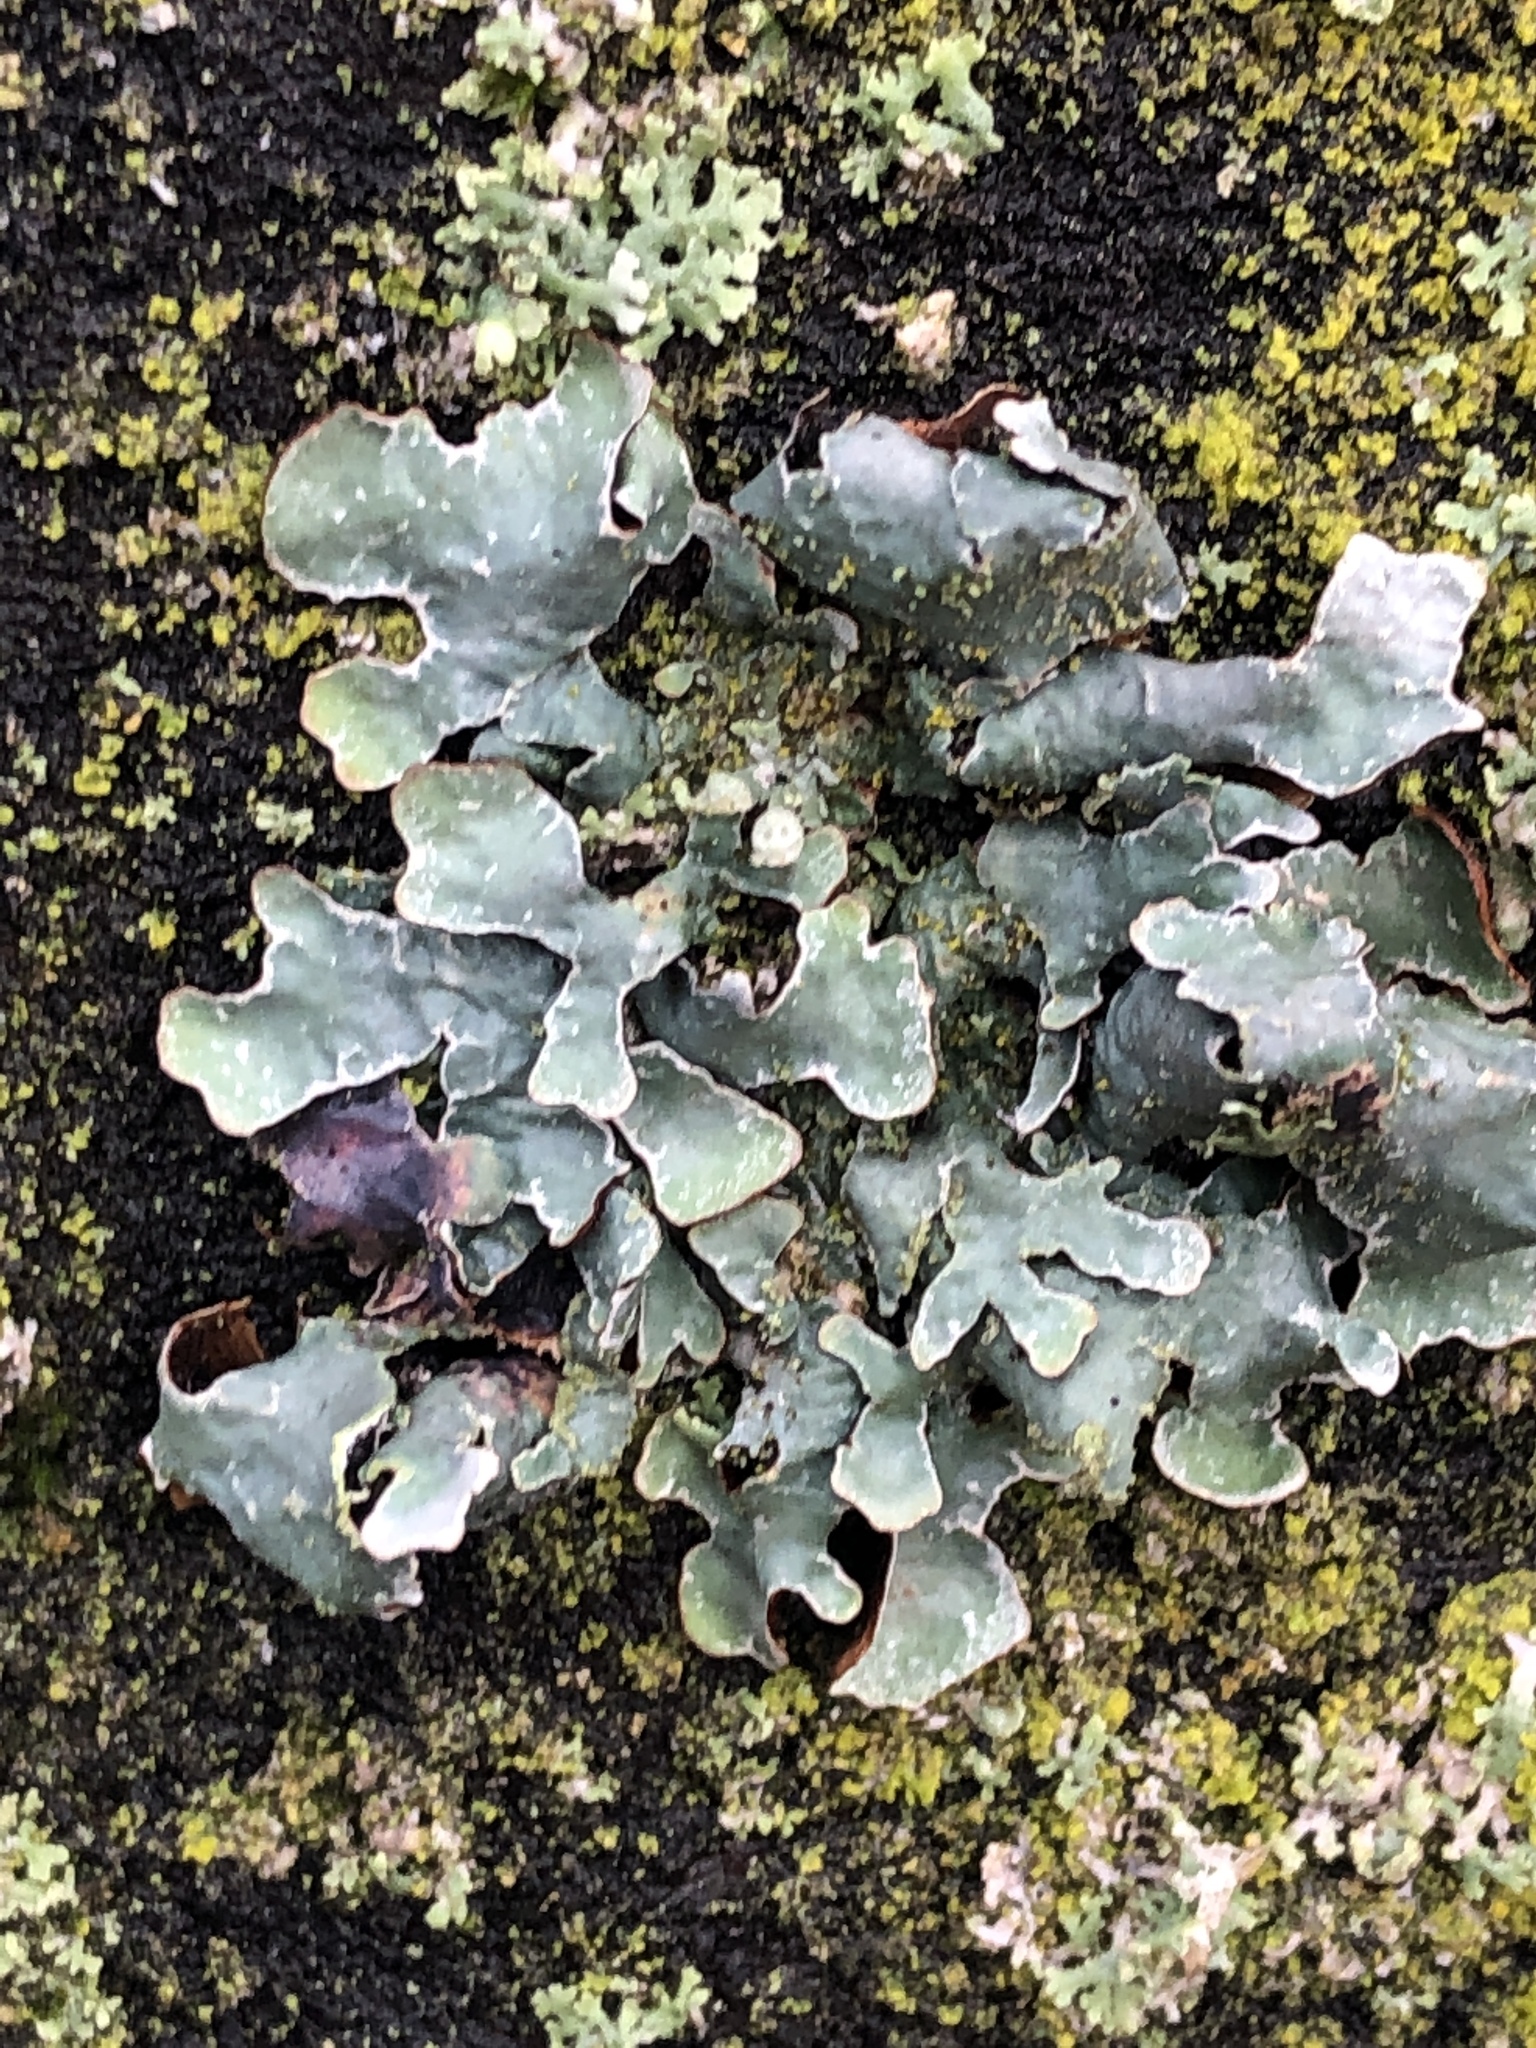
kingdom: Fungi
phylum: Ascomycota
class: Lecanoromycetes
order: Lecanorales
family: Parmeliaceae
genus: Parmelia
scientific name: Parmelia sulcata
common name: Netted shield lichen
